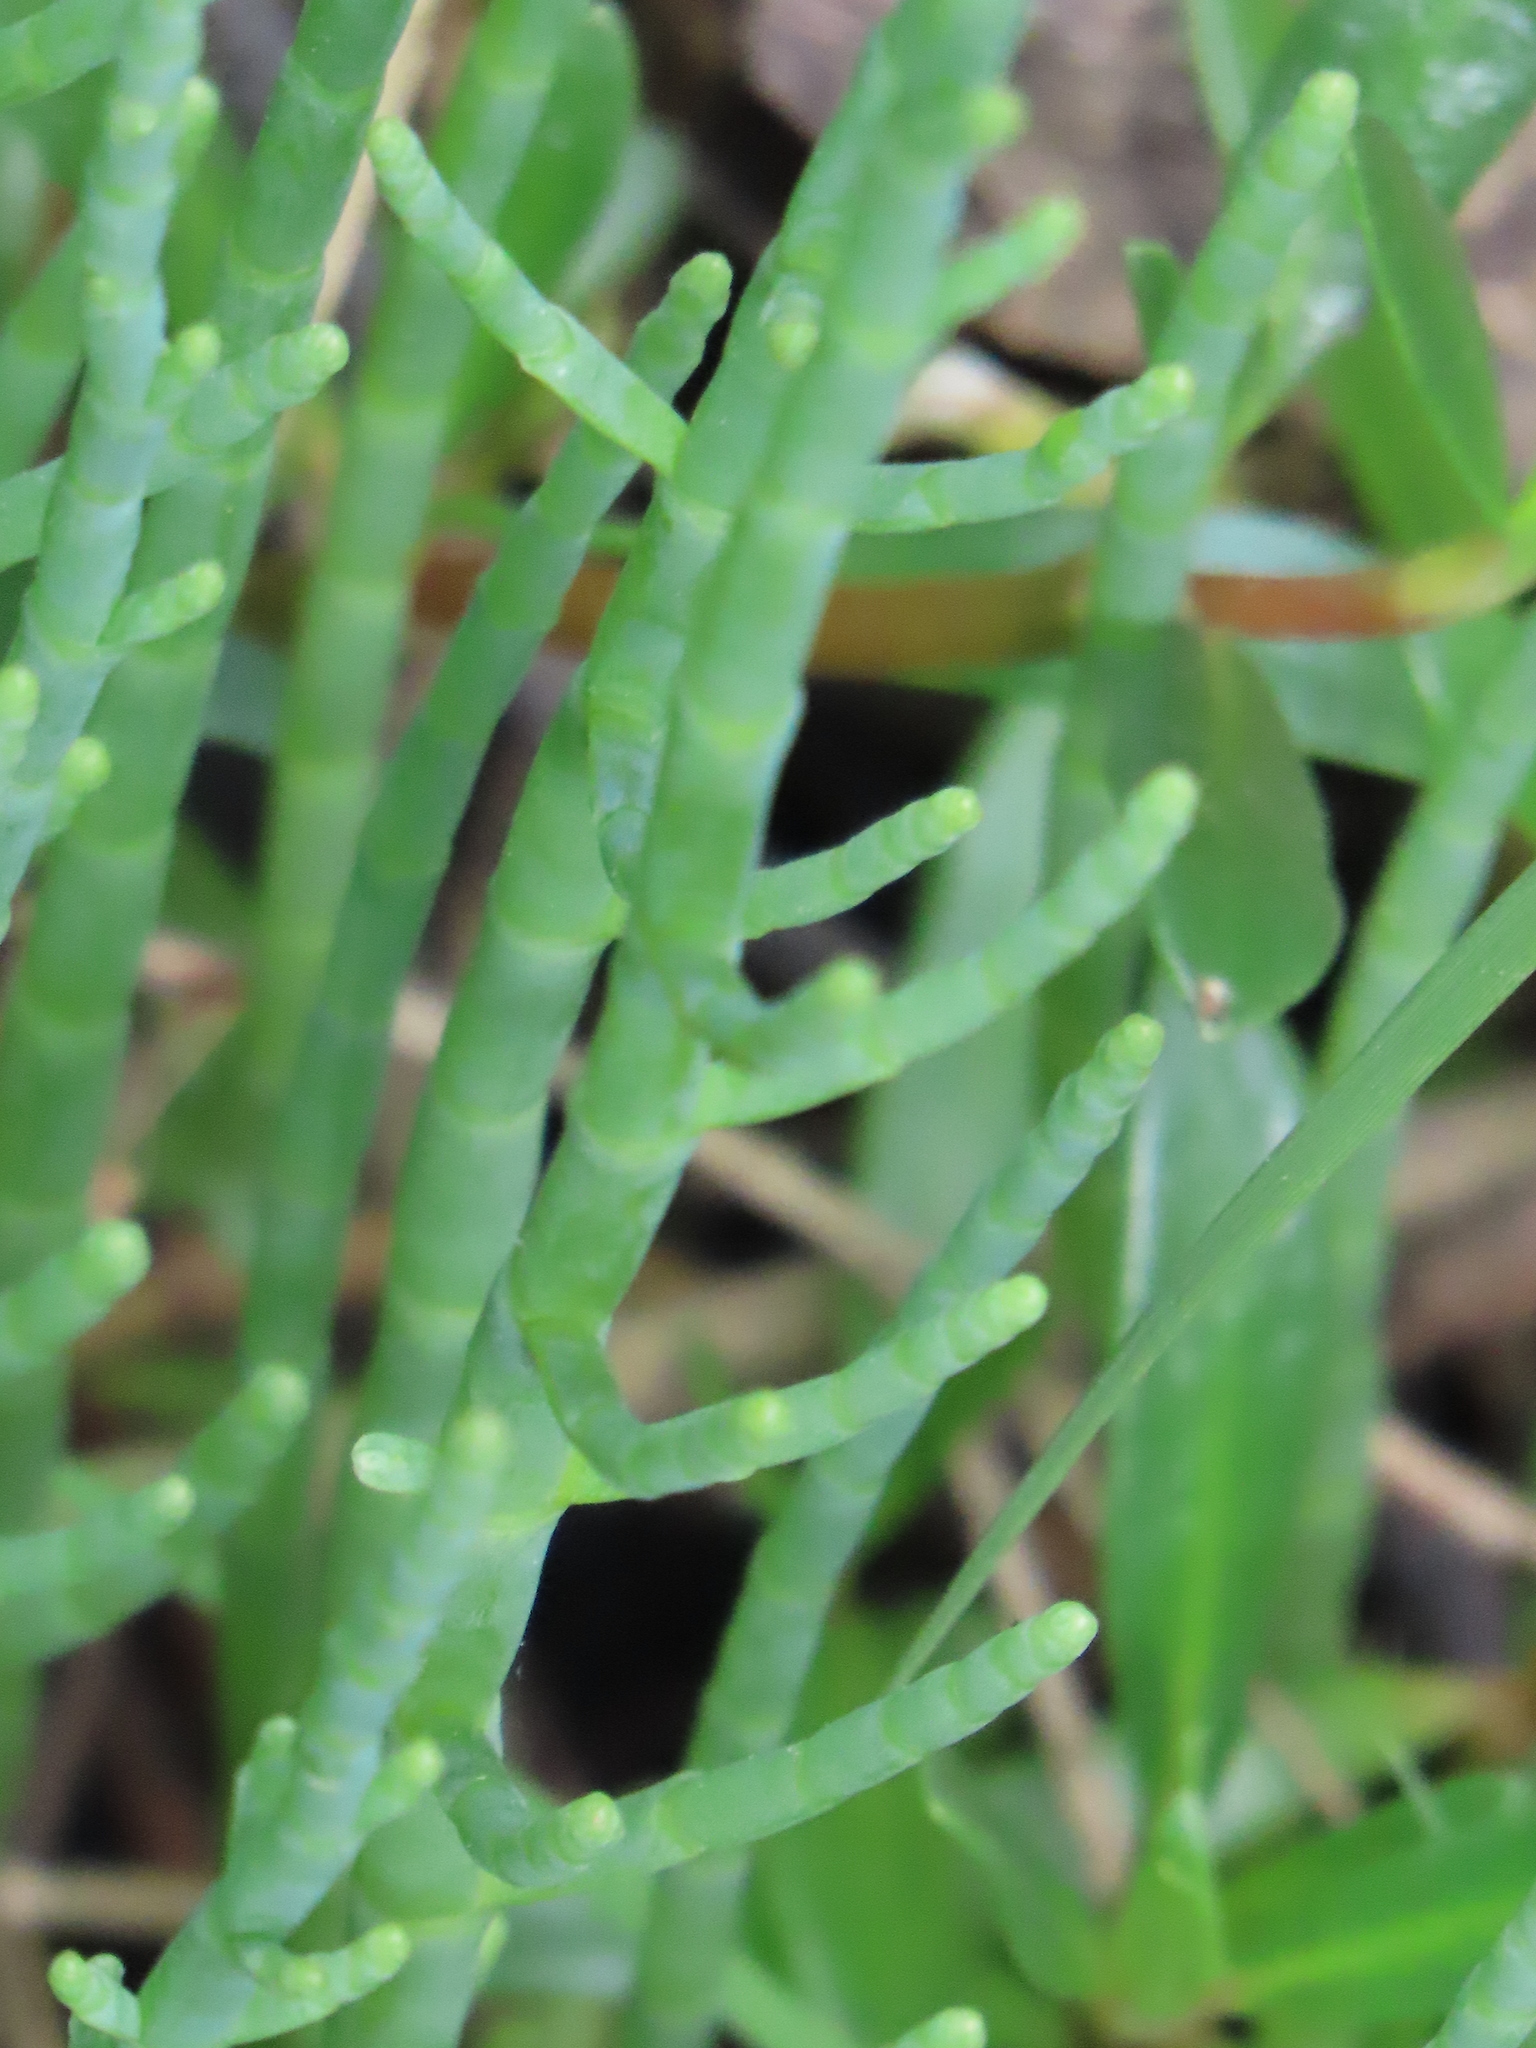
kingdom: Plantae
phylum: Tracheophyta
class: Magnoliopsida
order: Caryophyllales
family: Amaranthaceae
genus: Salicornia
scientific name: Salicornia ambigua
